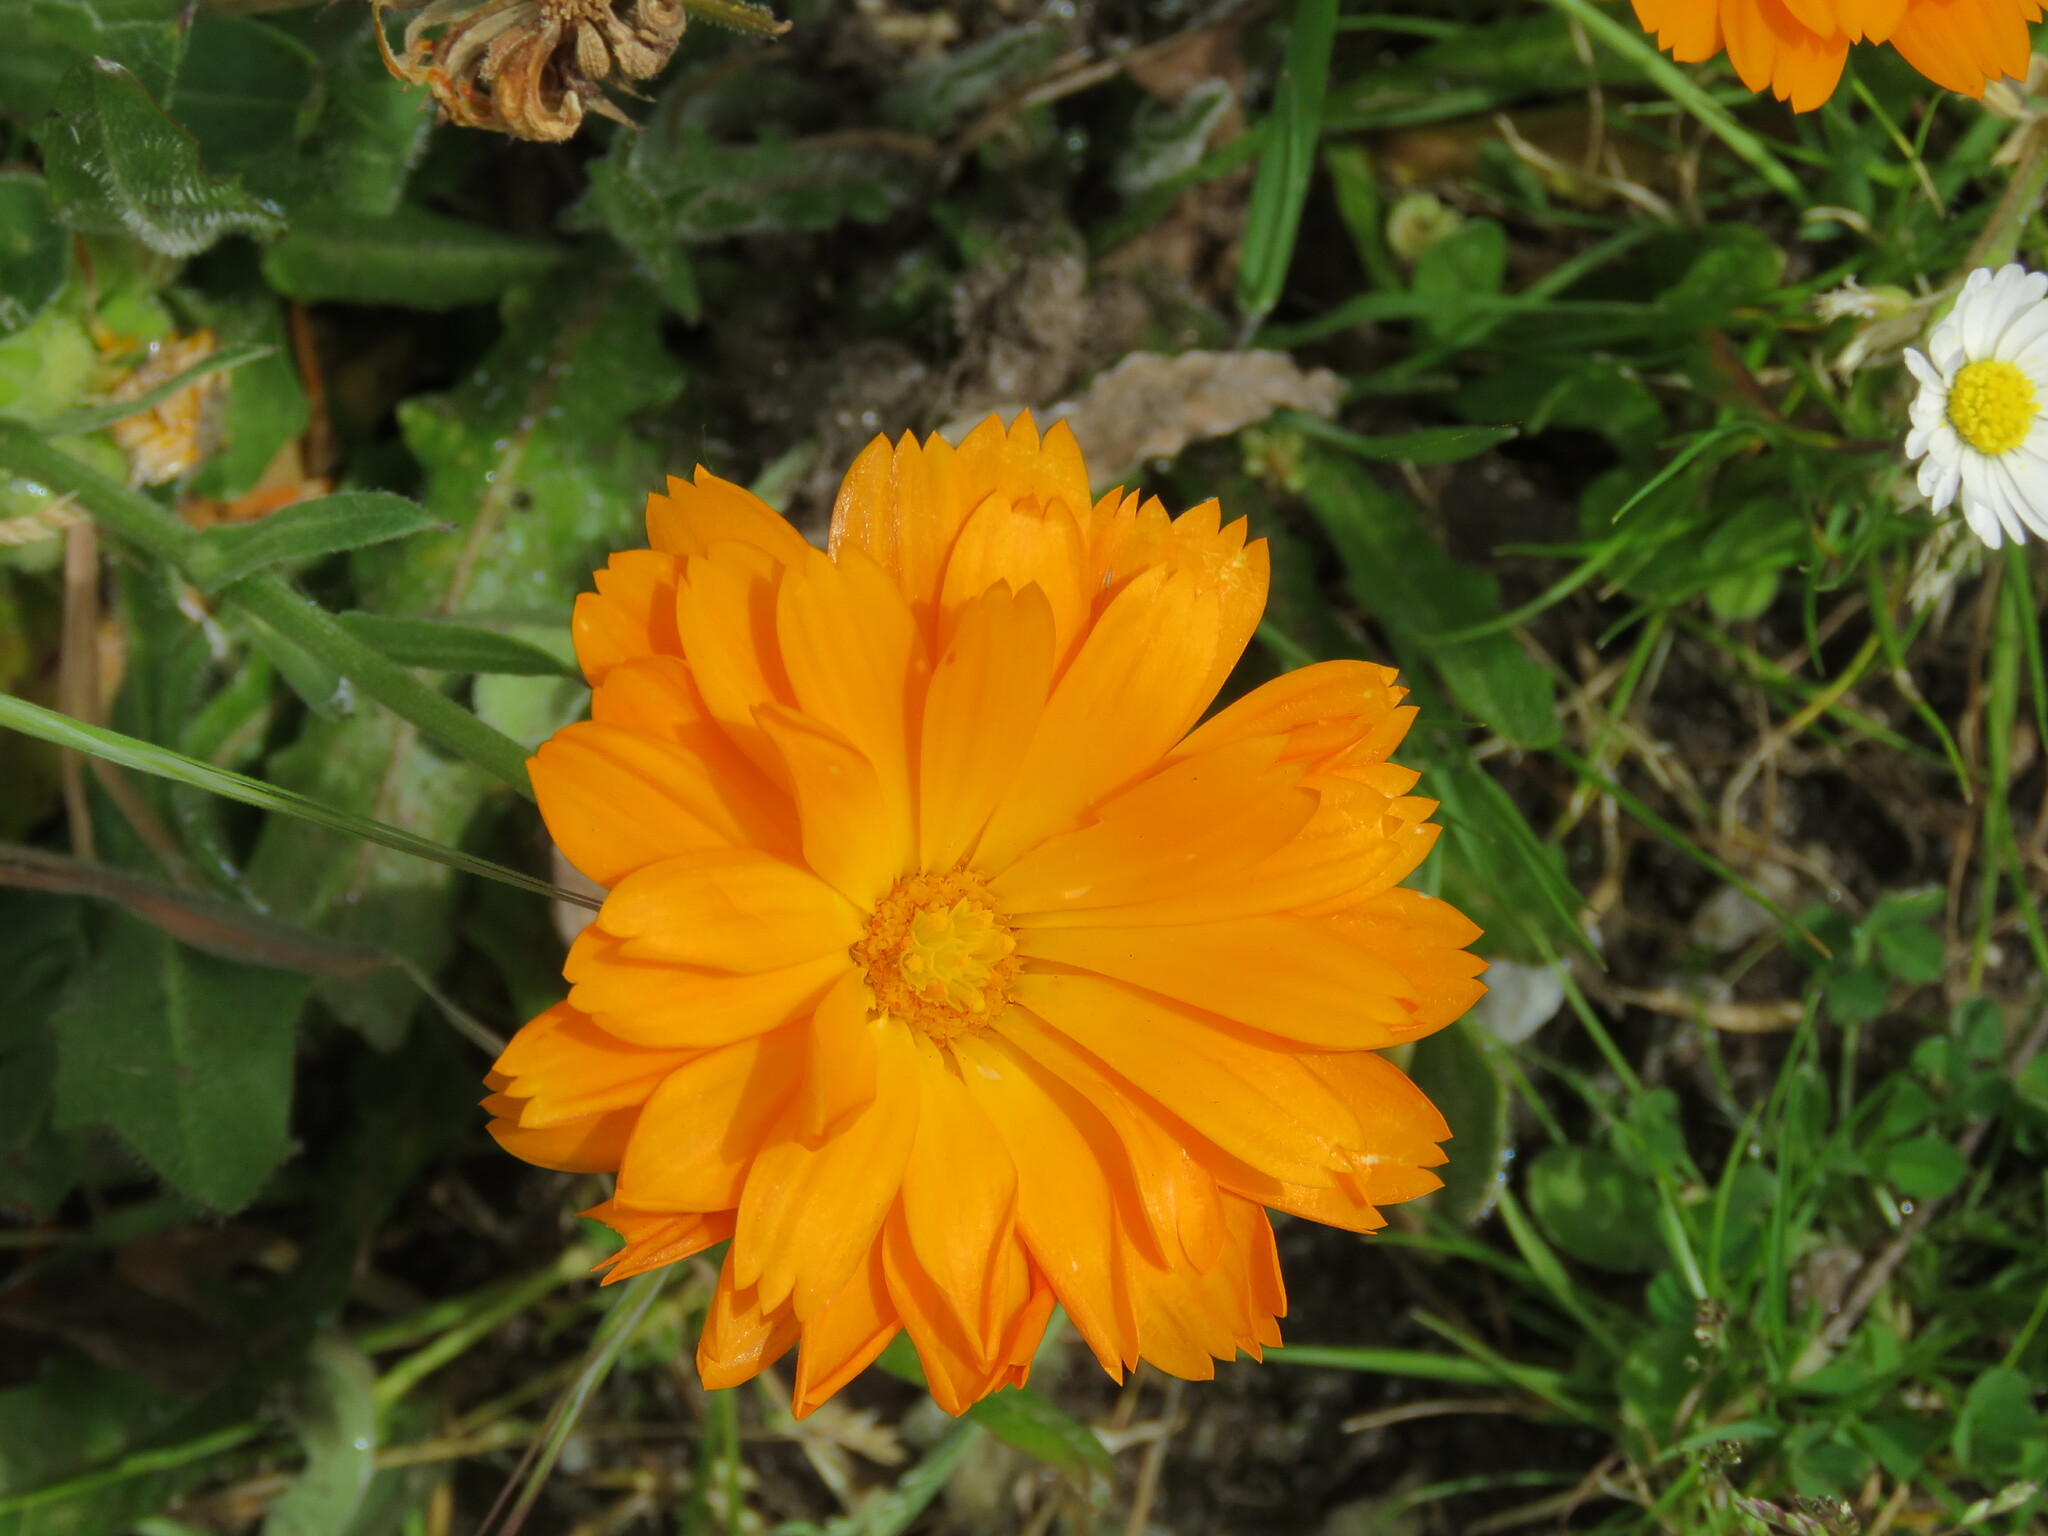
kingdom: Plantae
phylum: Tracheophyta
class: Magnoliopsida
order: Asterales
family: Asteraceae
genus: Calendula
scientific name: Calendula officinalis
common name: Pot marigold
